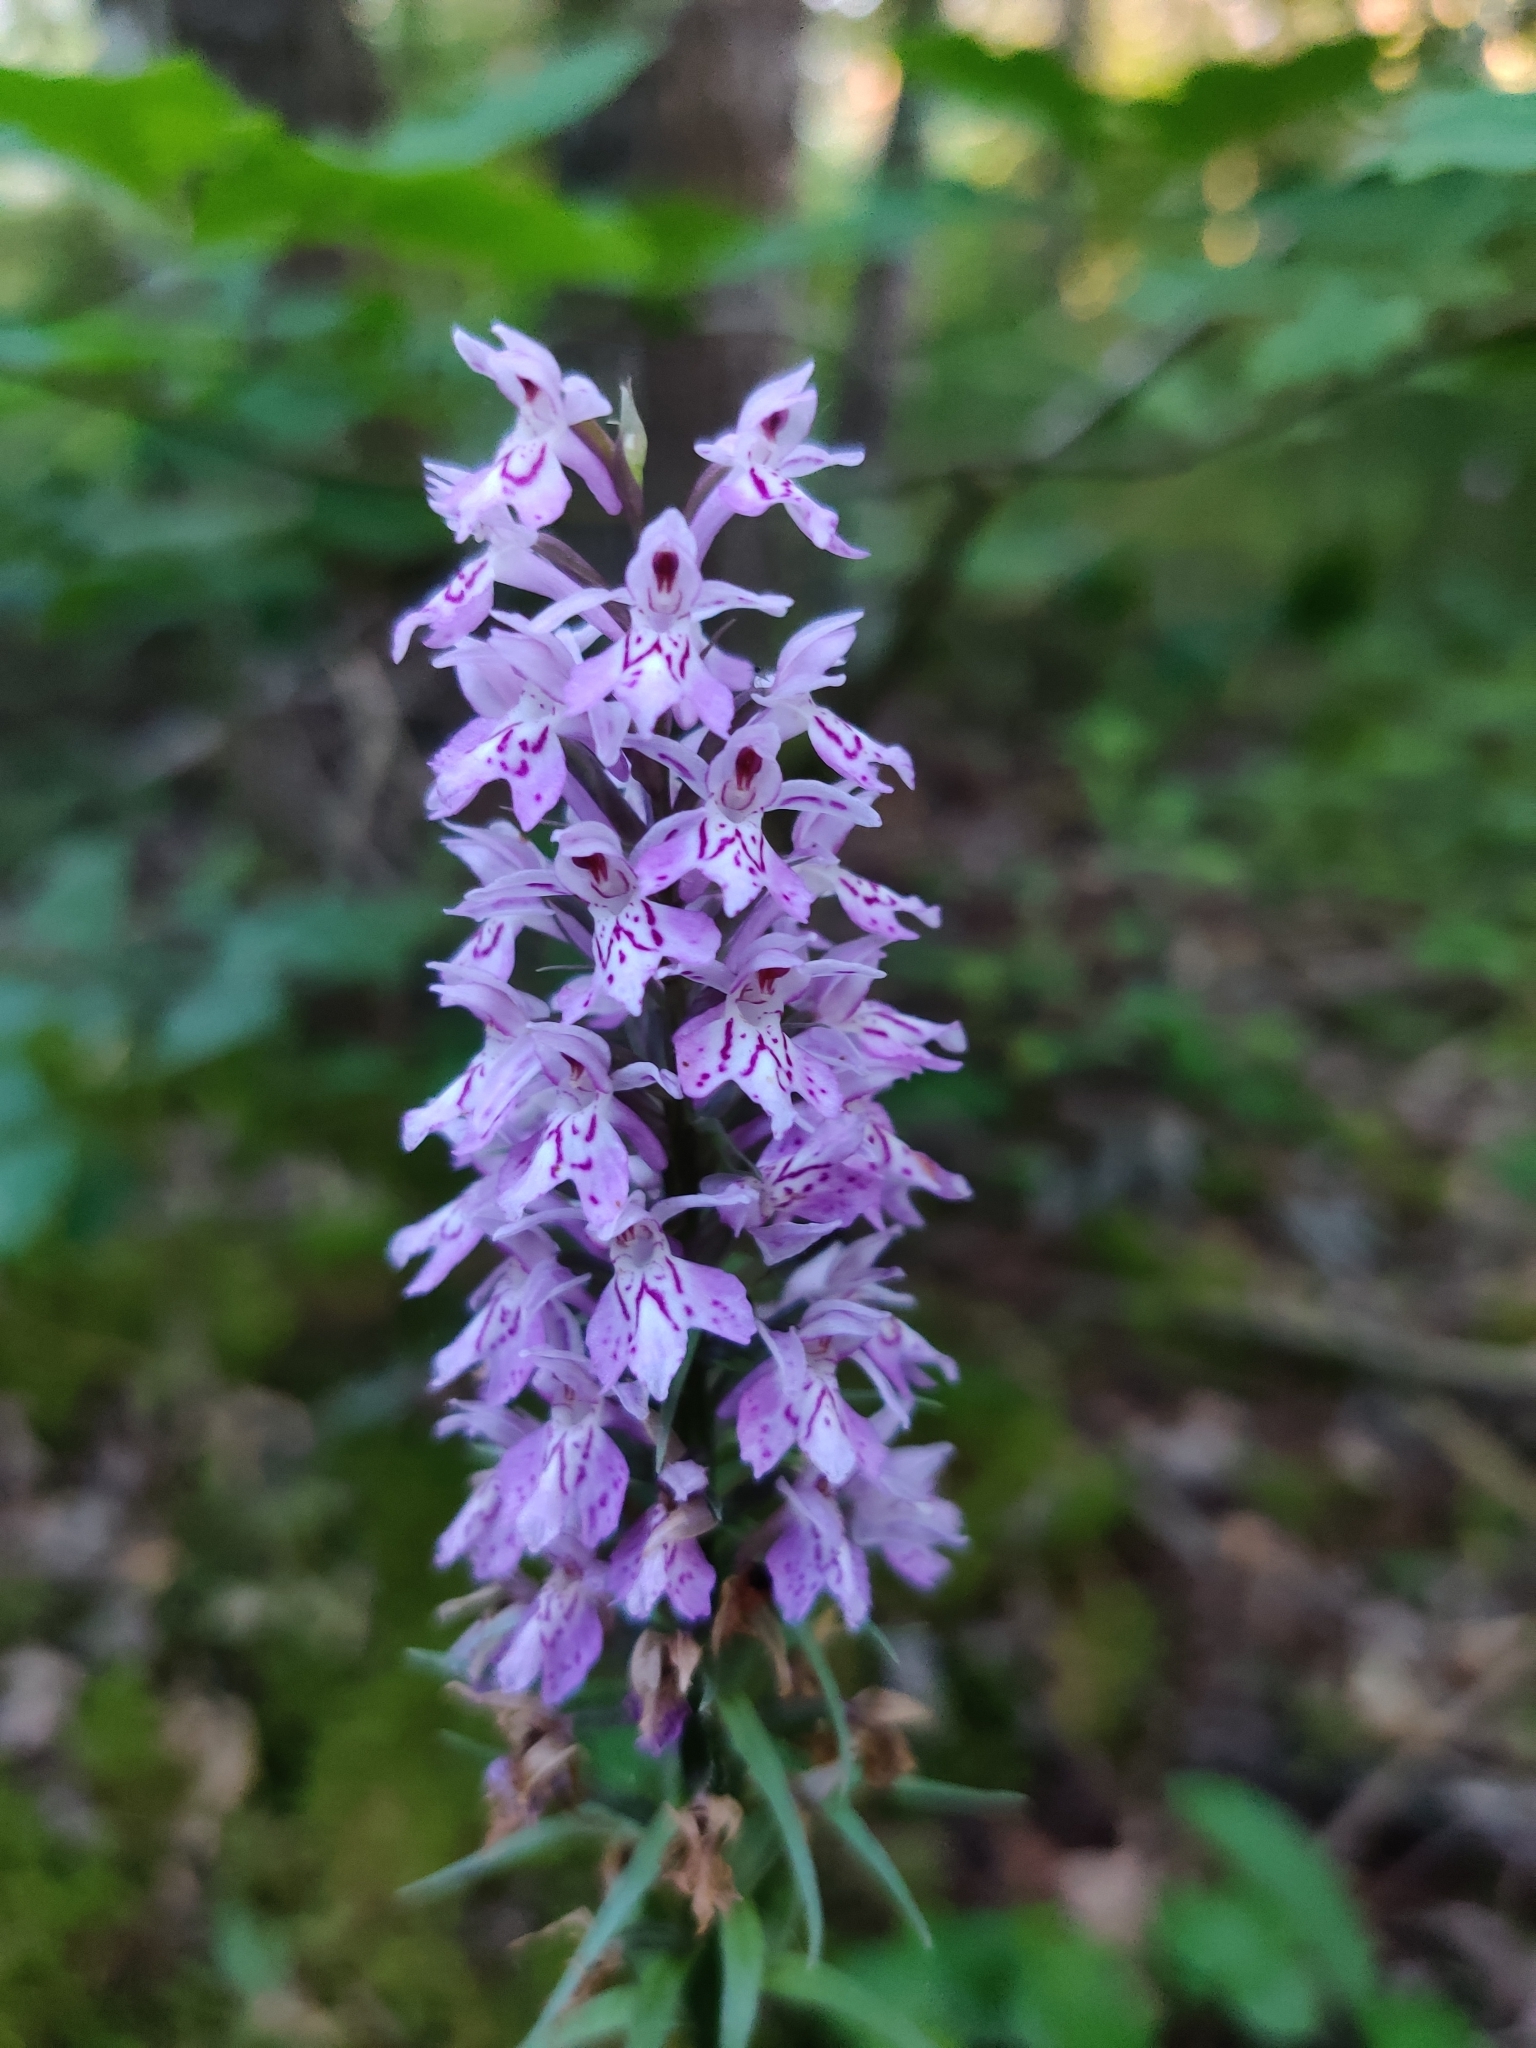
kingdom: Plantae
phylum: Tracheophyta
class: Liliopsida
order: Asparagales
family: Orchidaceae
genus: Dactylorhiza
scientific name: Dactylorhiza maculata
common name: Heath spotted-orchid
